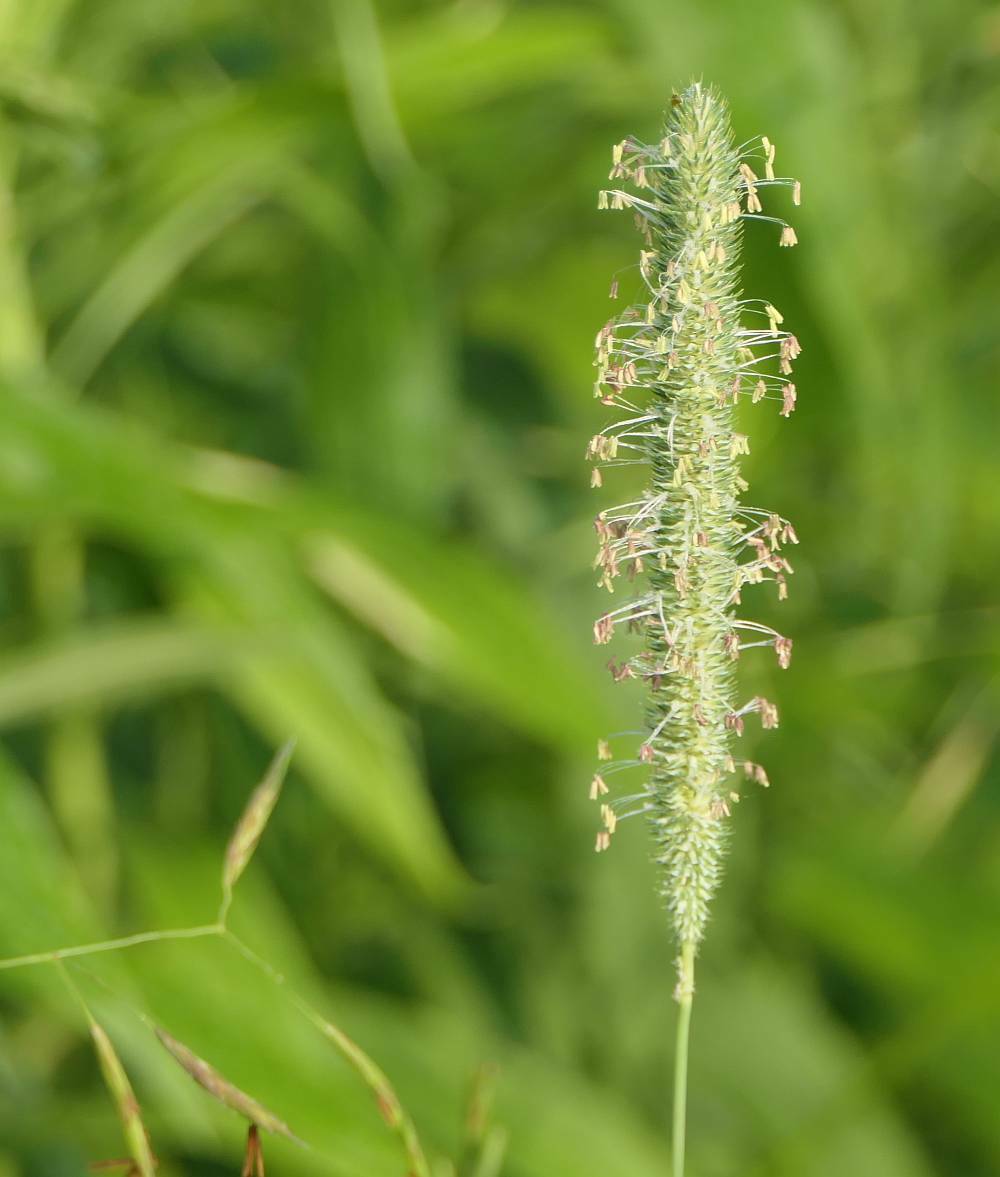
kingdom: Plantae
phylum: Tracheophyta
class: Liliopsida
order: Poales
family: Poaceae
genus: Phleum
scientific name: Phleum pratense
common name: Timothy grass
